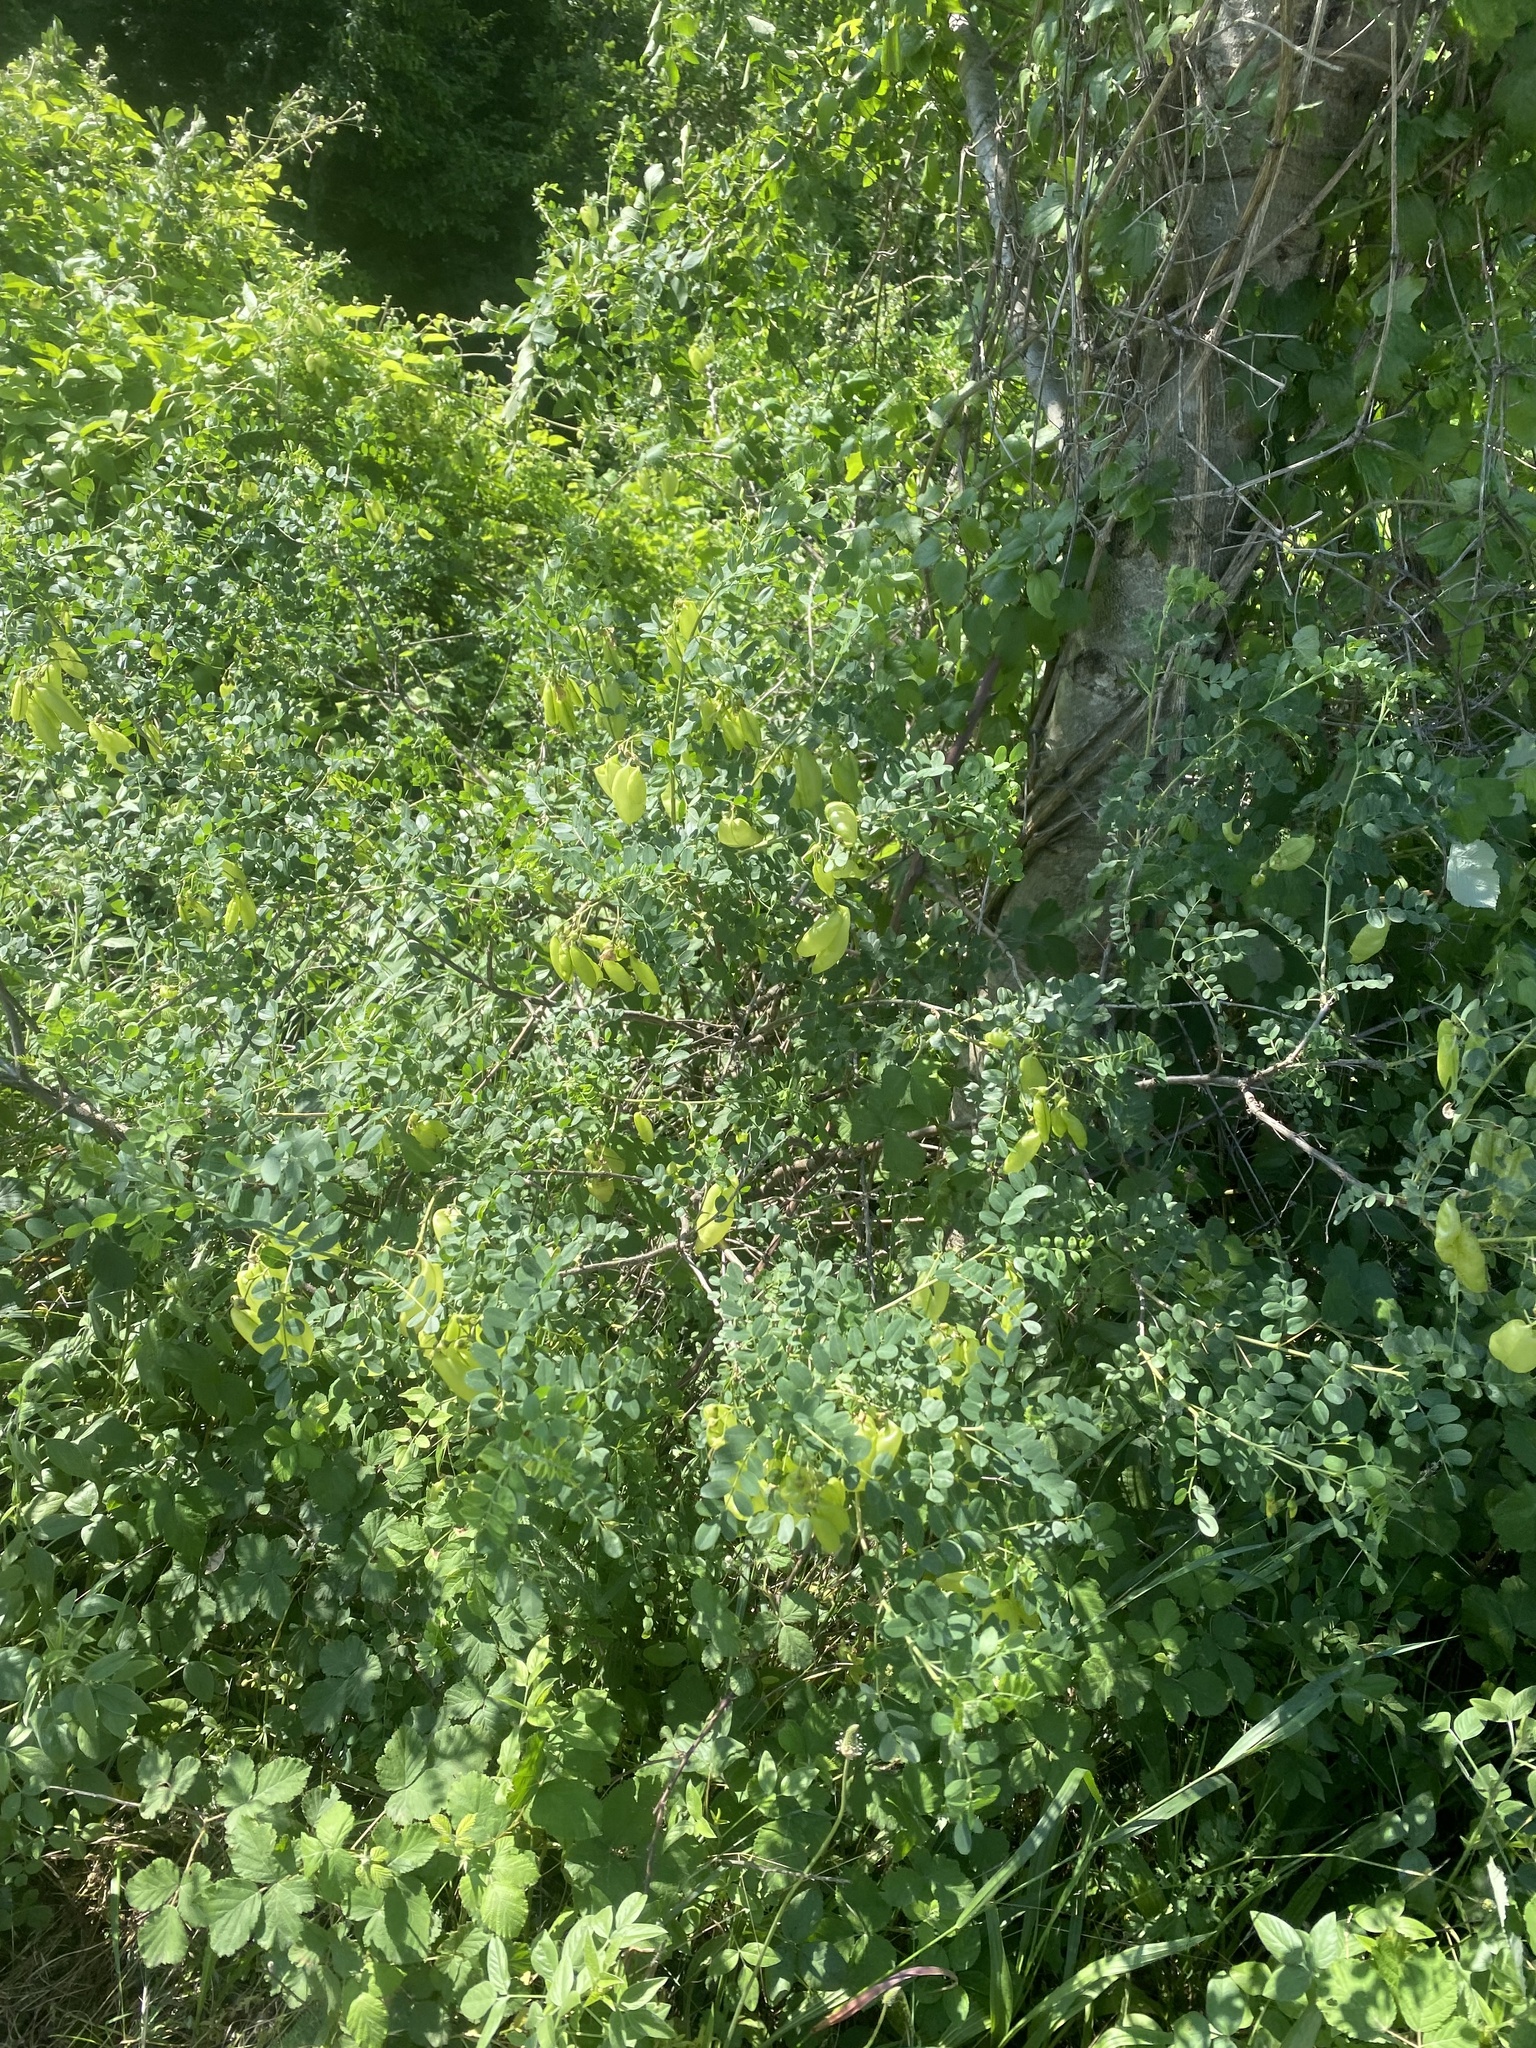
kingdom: Plantae
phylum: Tracheophyta
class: Magnoliopsida
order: Fabales
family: Fabaceae
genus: Colutea
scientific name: Colutea cilicica
